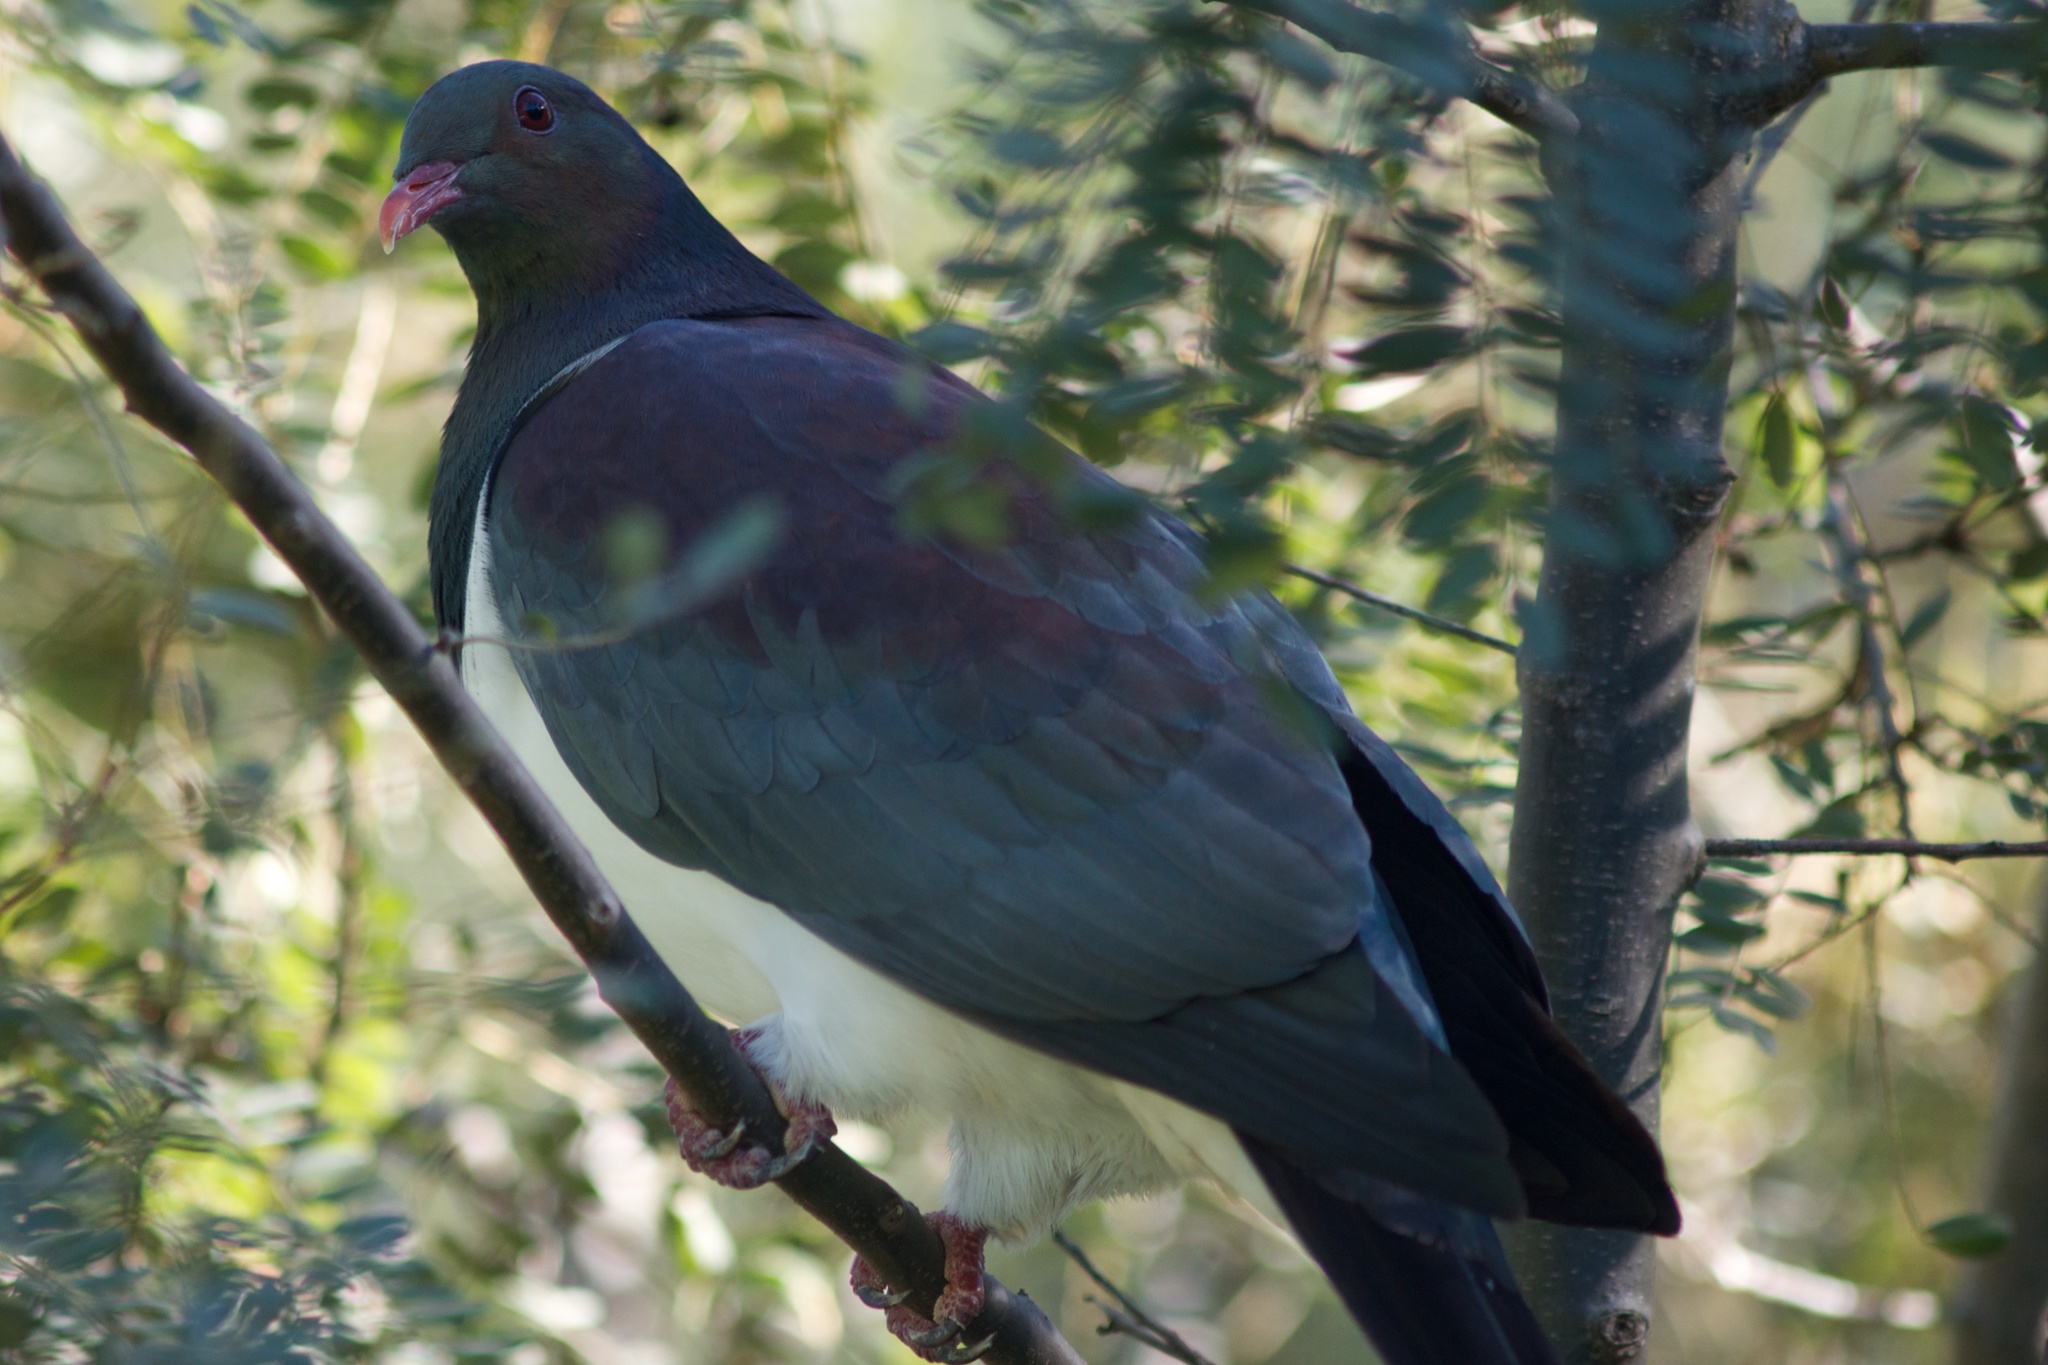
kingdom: Animalia
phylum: Chordata
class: Aves
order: Columbiformes
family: Columbidae
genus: Hemiphaga
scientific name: Hemiphaga novaeseelandiae
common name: New zealand pigeon
